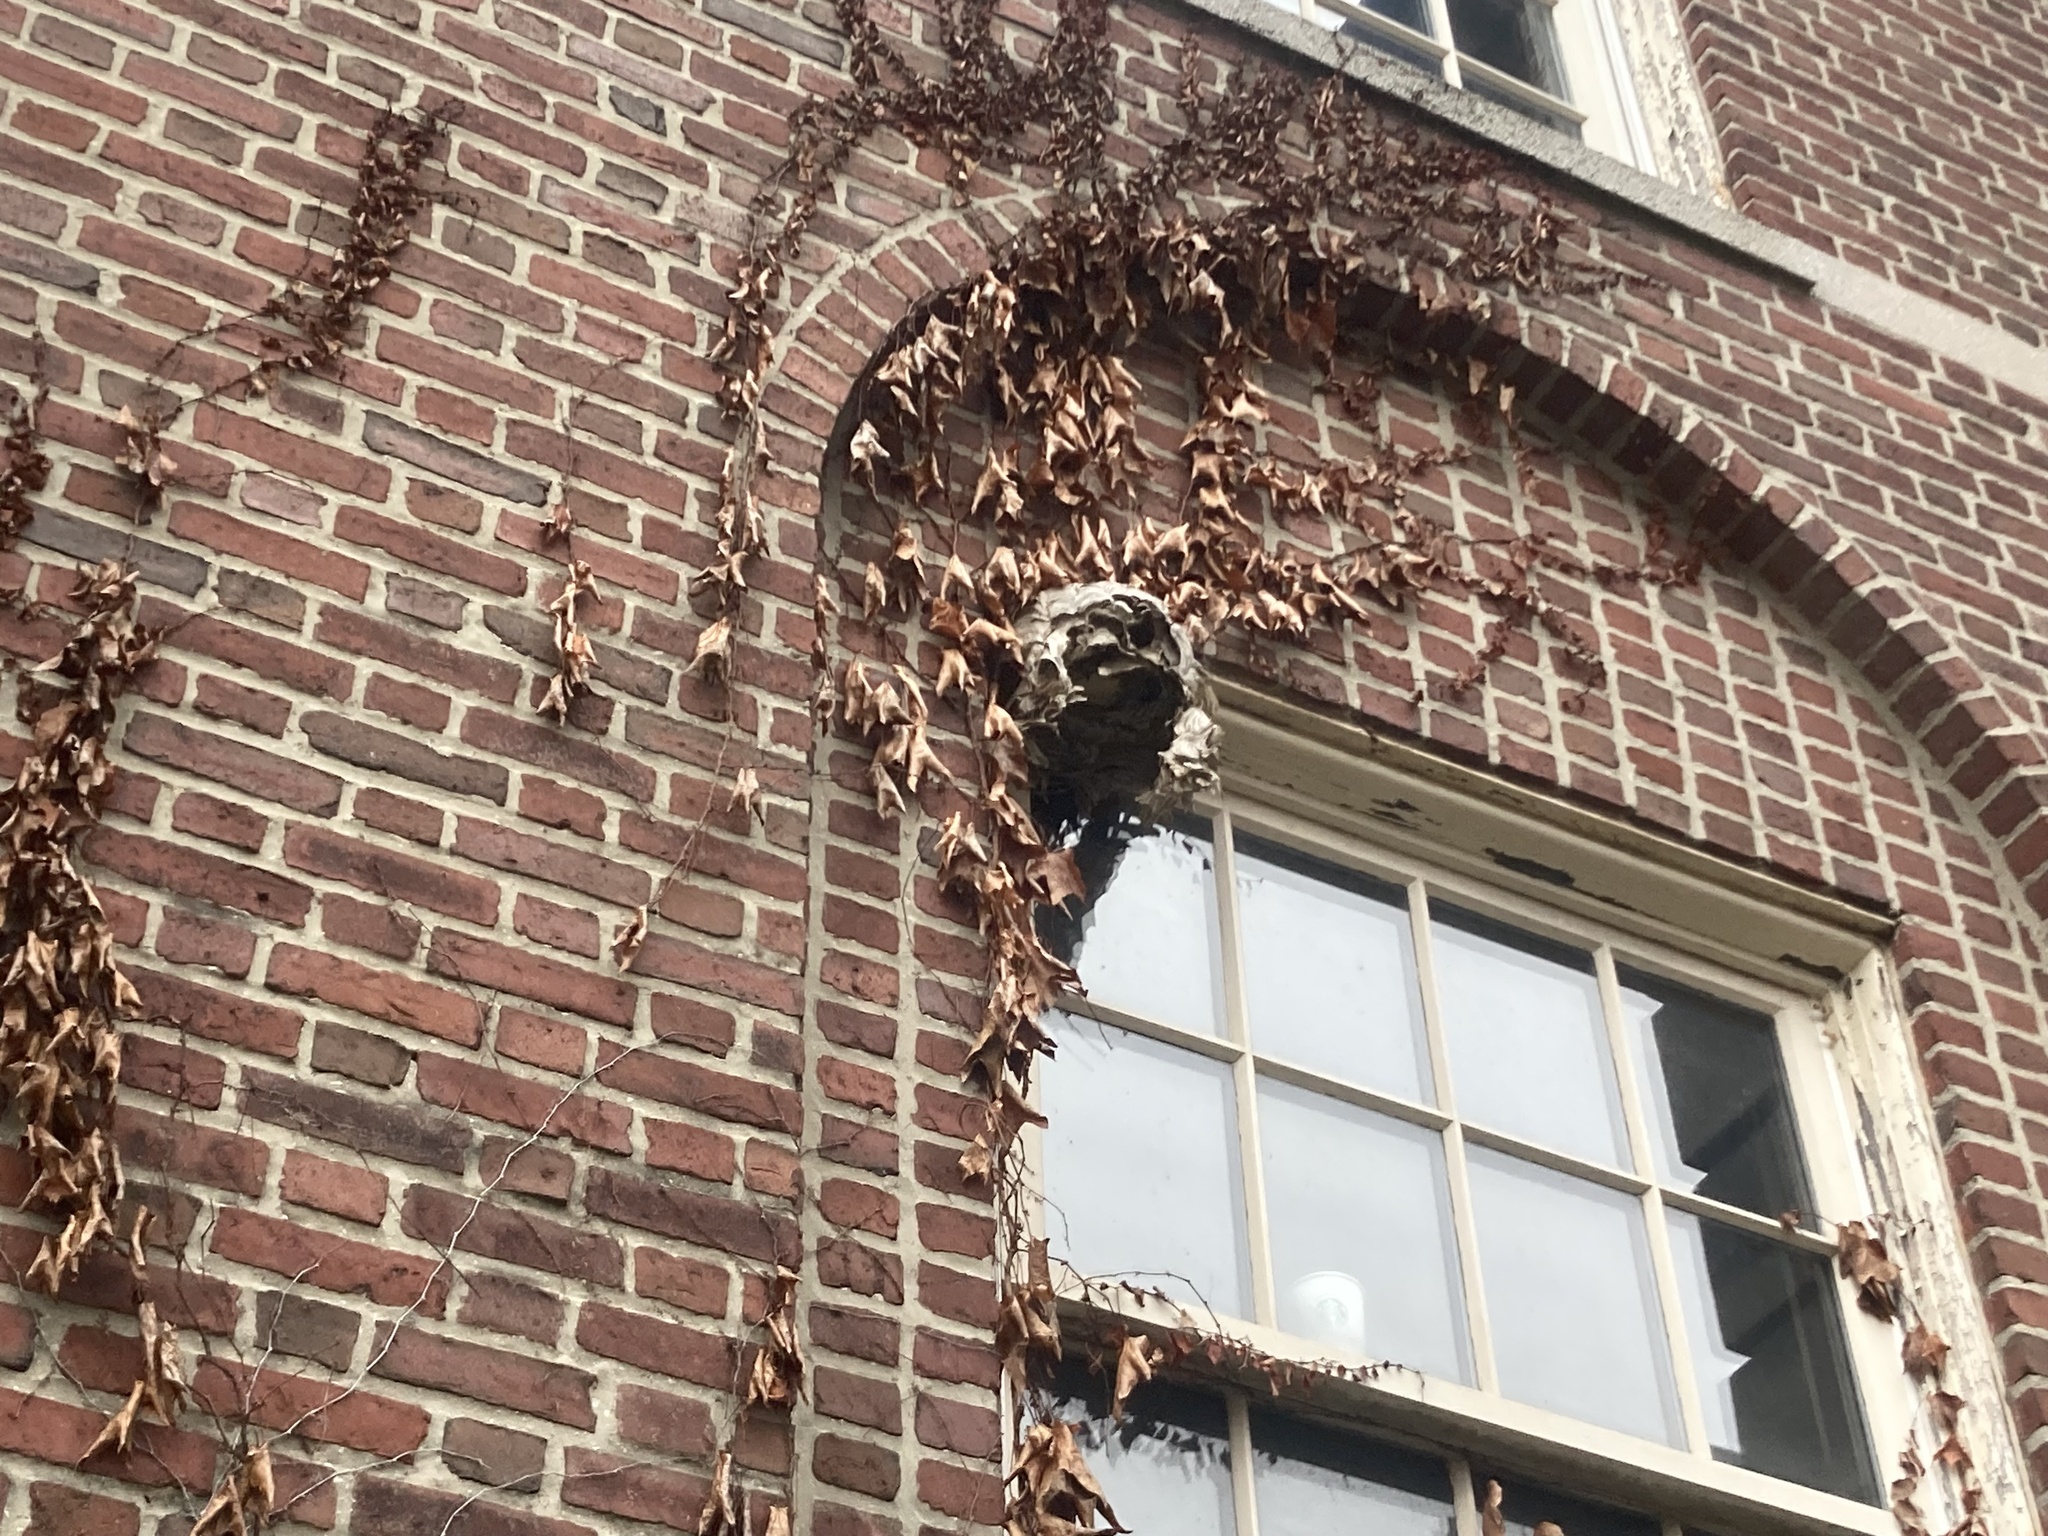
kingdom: Animalia
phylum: Arthropoda
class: Insecta
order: Hymenoptera
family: Vespidae
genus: Dolichovespula
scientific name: Dolichovespula maculata
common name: Bald-faced hornet
